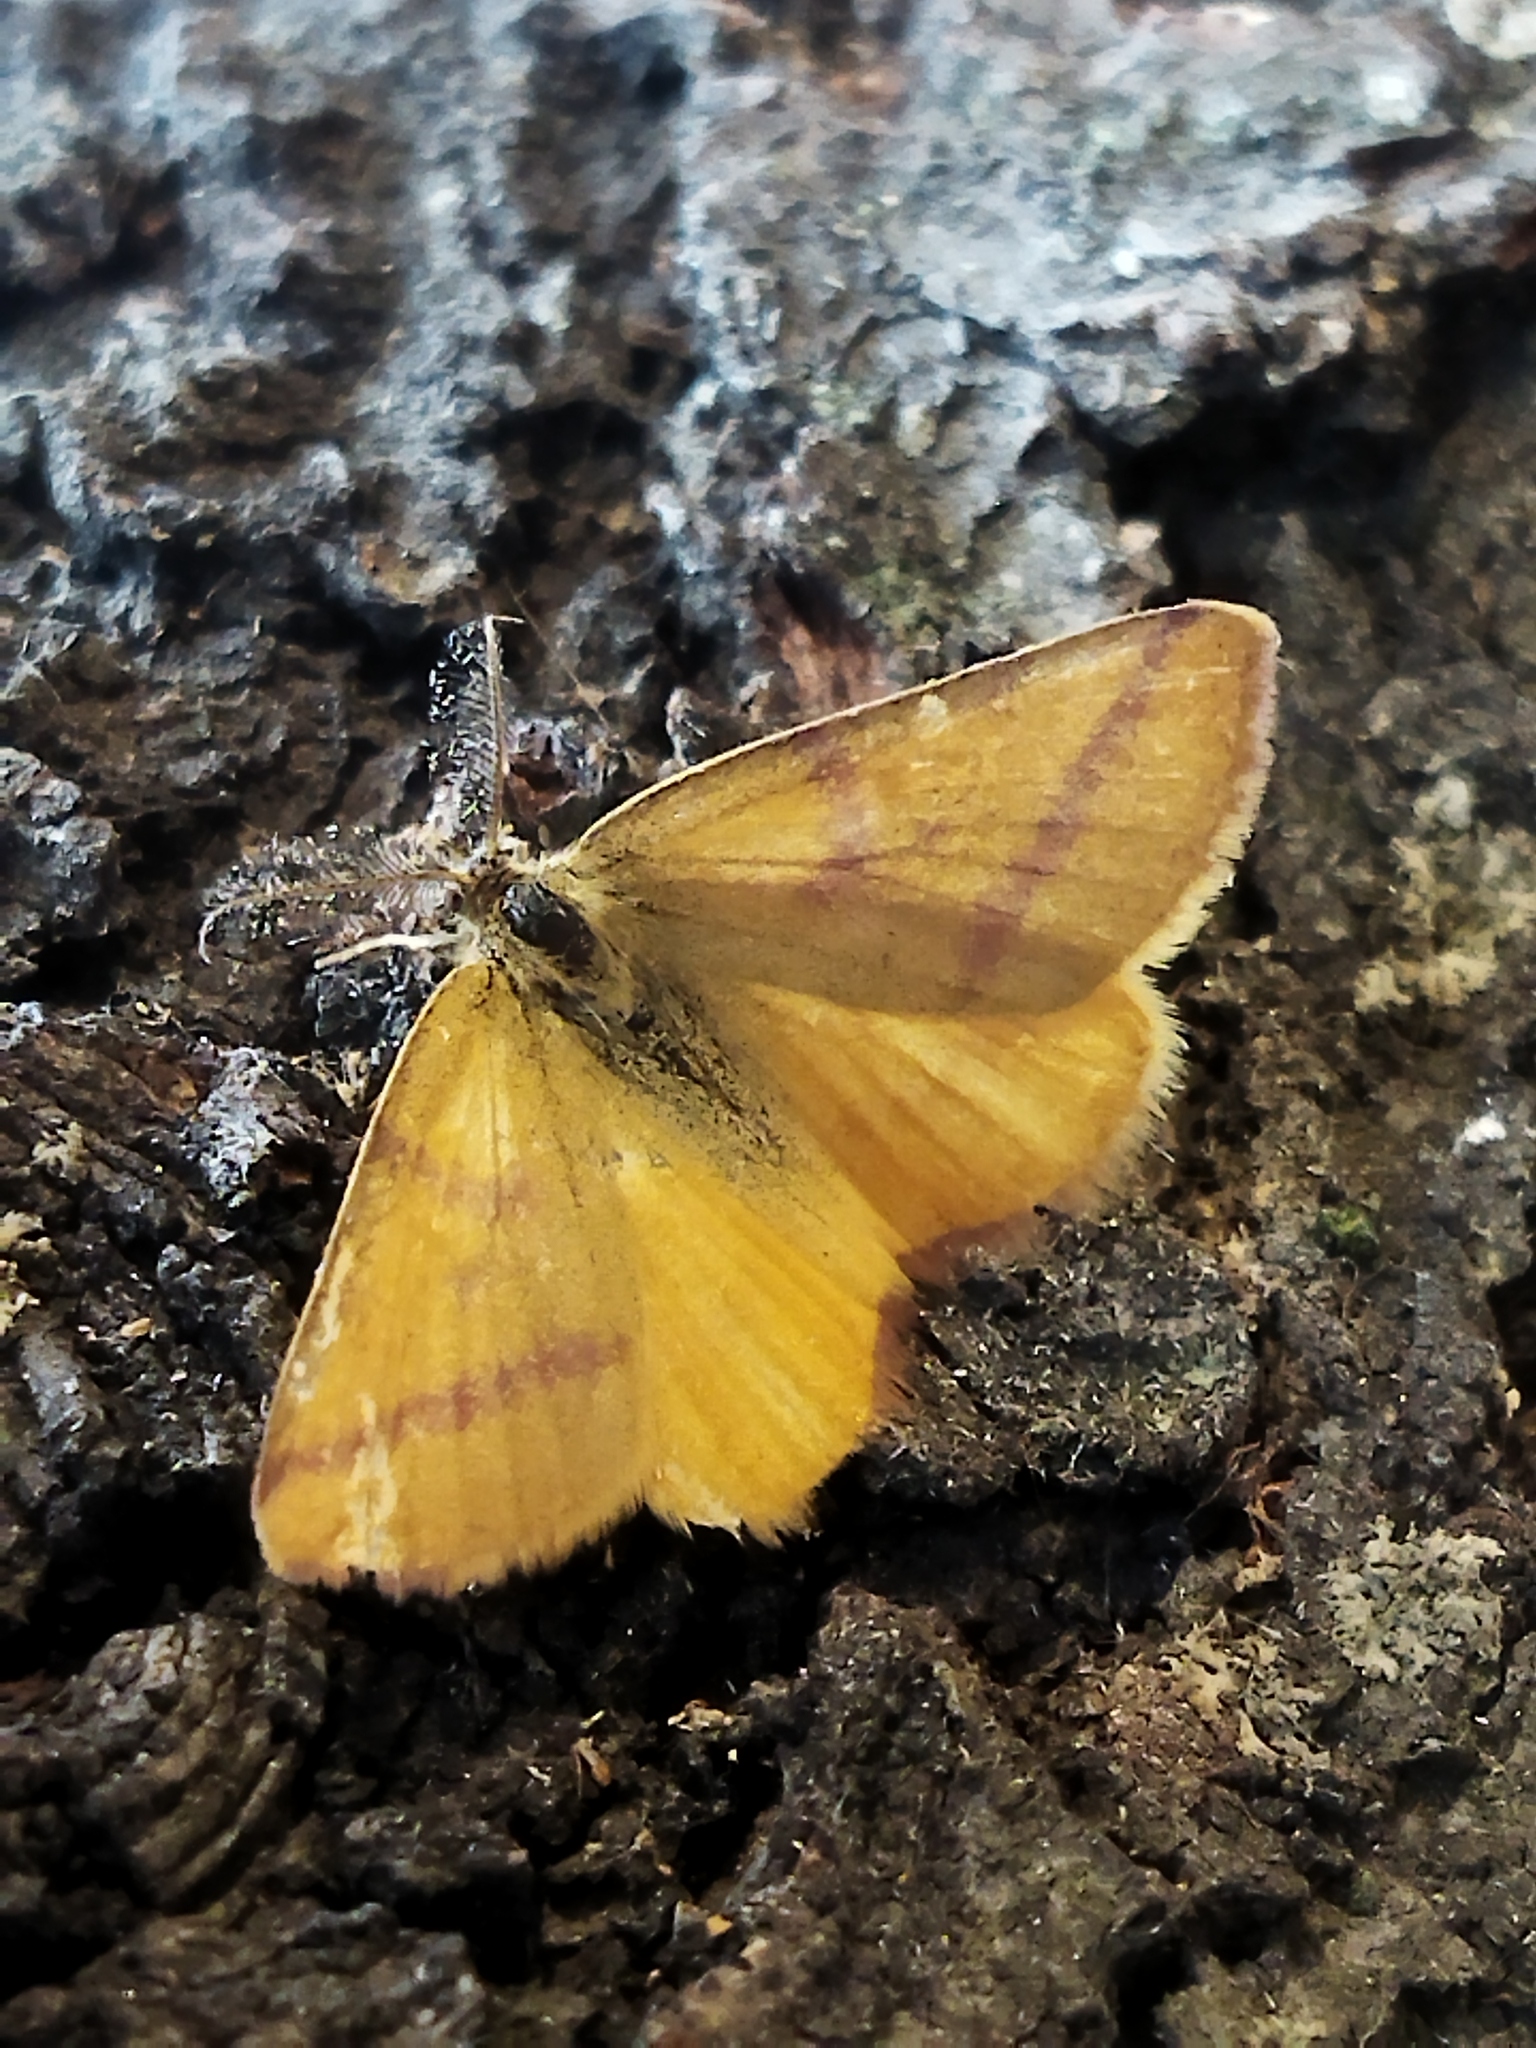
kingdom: Animalia
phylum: Arthropoda
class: Insecta
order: Lepidoptera
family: Geometridae
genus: Lythria
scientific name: Lythria purpuraria
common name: Purple-barred yellow
